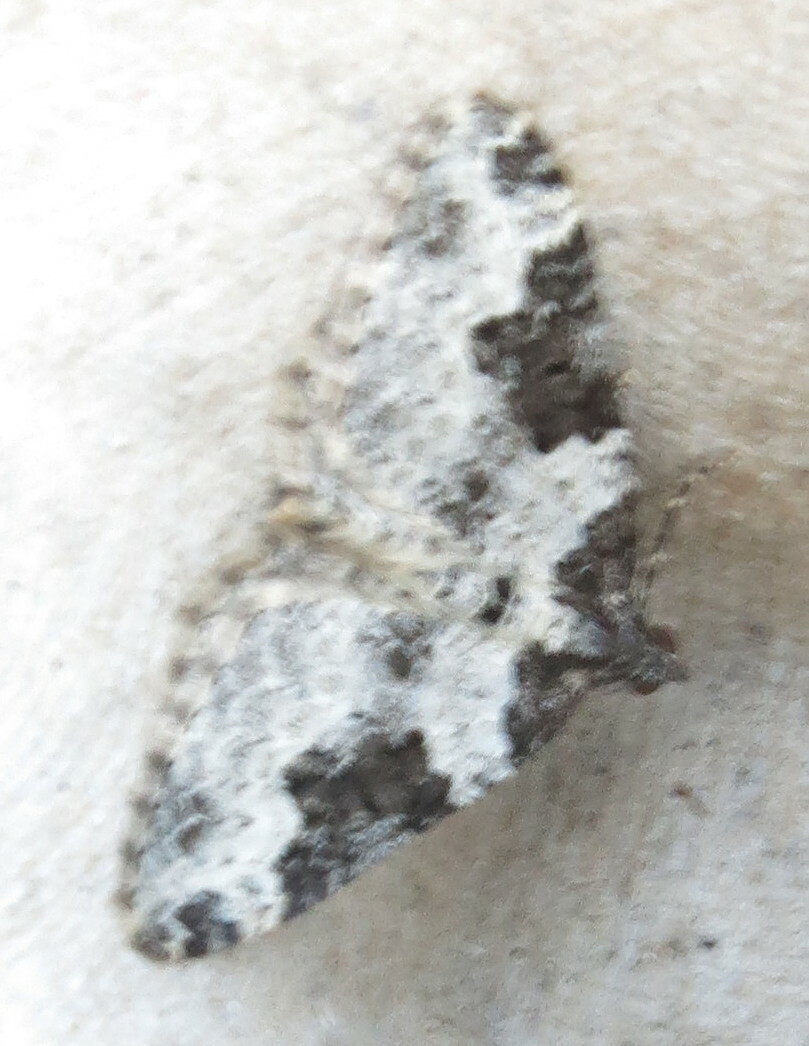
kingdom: Animalia
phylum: Arthropoda
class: Insecta
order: Lepidoptera
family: Geometridae
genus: Xanthorhoe
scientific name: Xanthorhoe fluctuata
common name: Garden carpet
